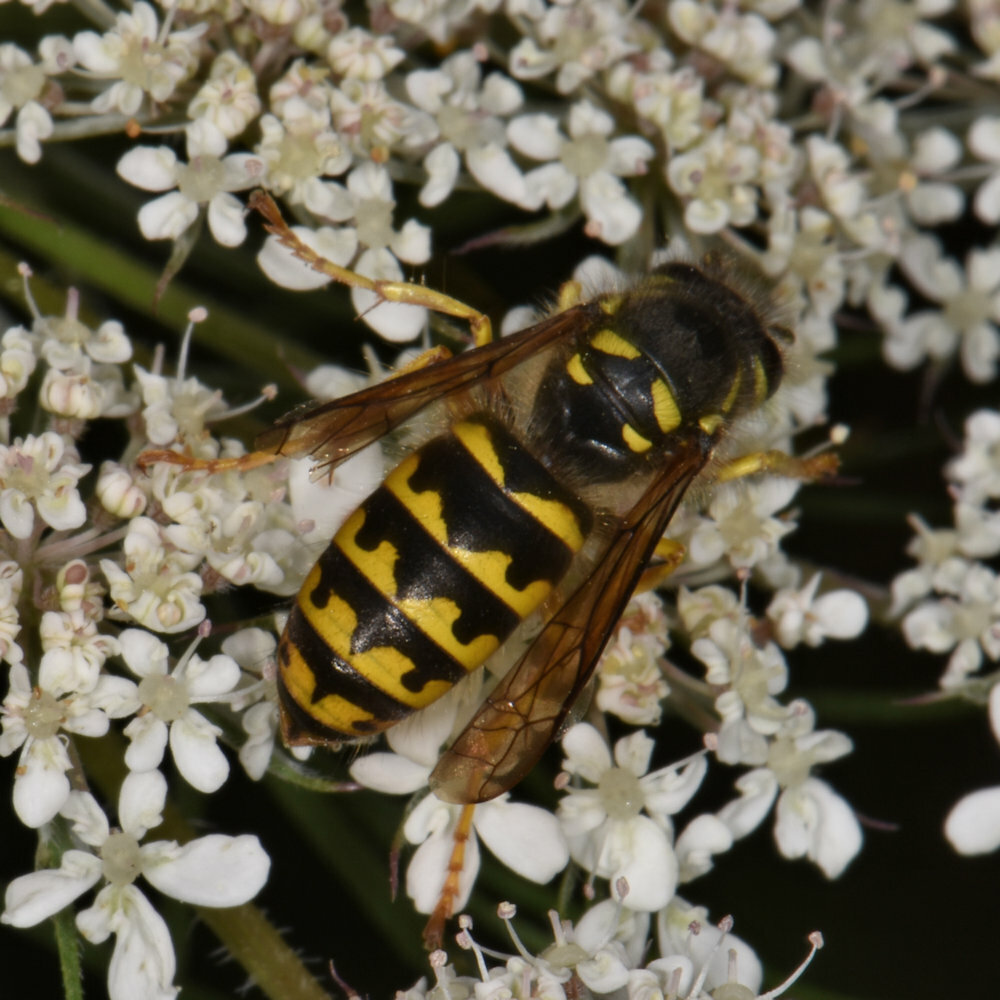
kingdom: Animalia
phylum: Arthropoda
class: Insecta
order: Hymenoptera
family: Vespidae
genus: Dolichovespula
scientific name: Dolichovespula arenaria
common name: Aerial yellowjacket
